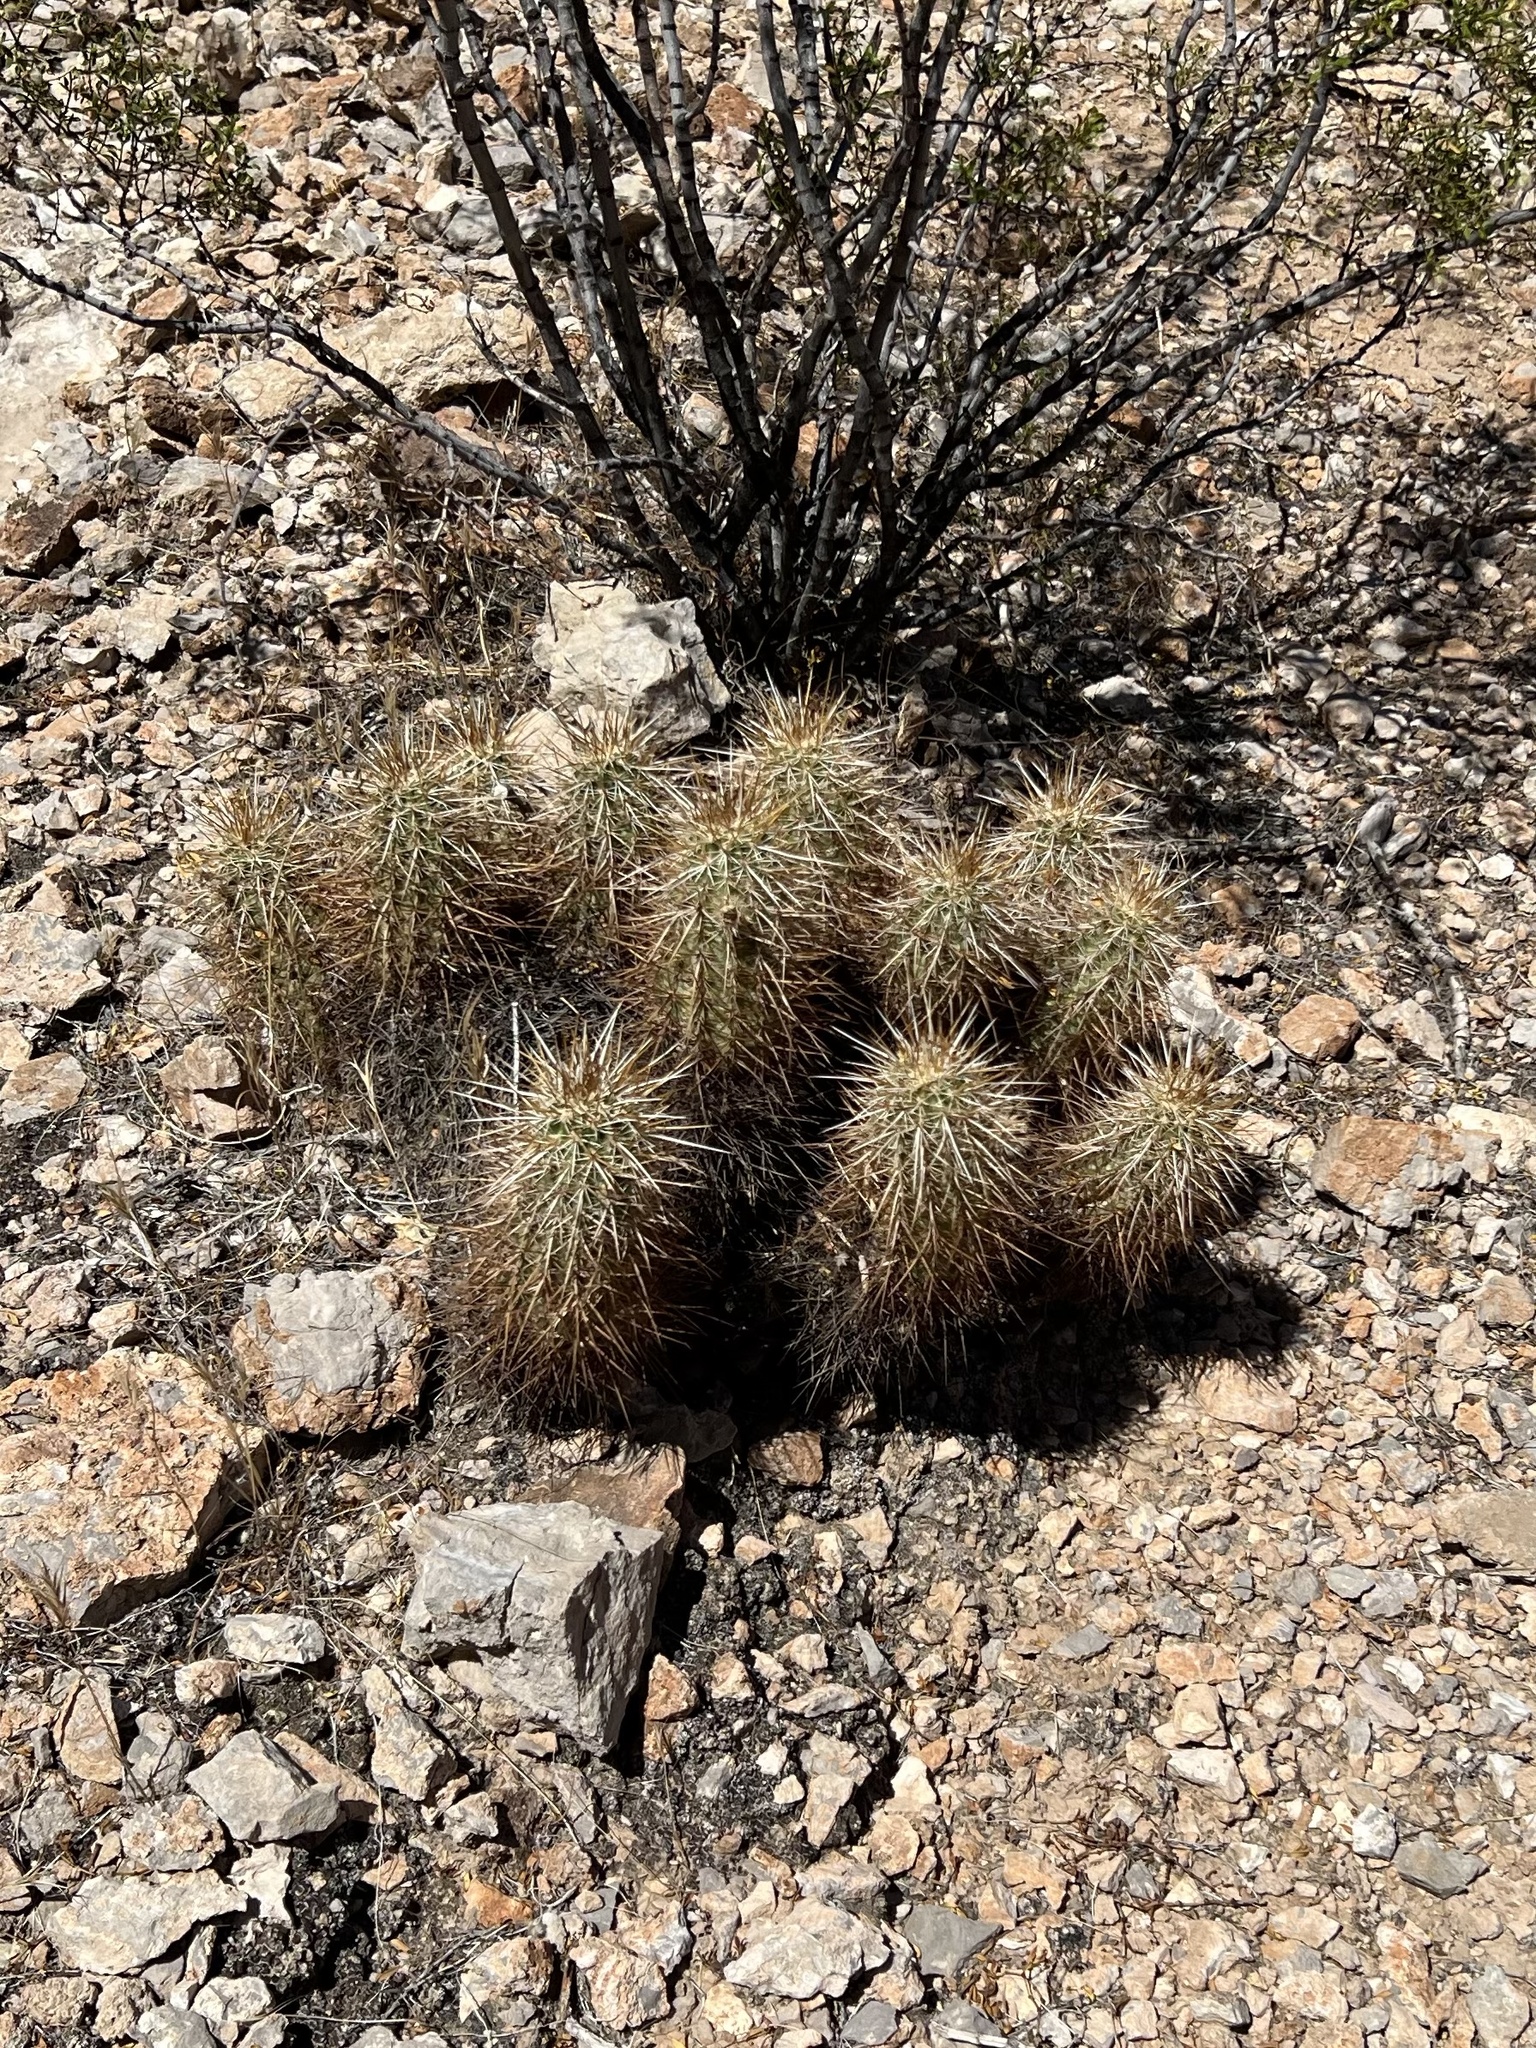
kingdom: Plantae
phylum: Tracheophyta
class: Magnoliopsida
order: Caryophyllales
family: Cactaceae
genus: Echinocereus
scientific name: Echinocereus engelmannii
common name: Engelmann's hedgehog cactus
